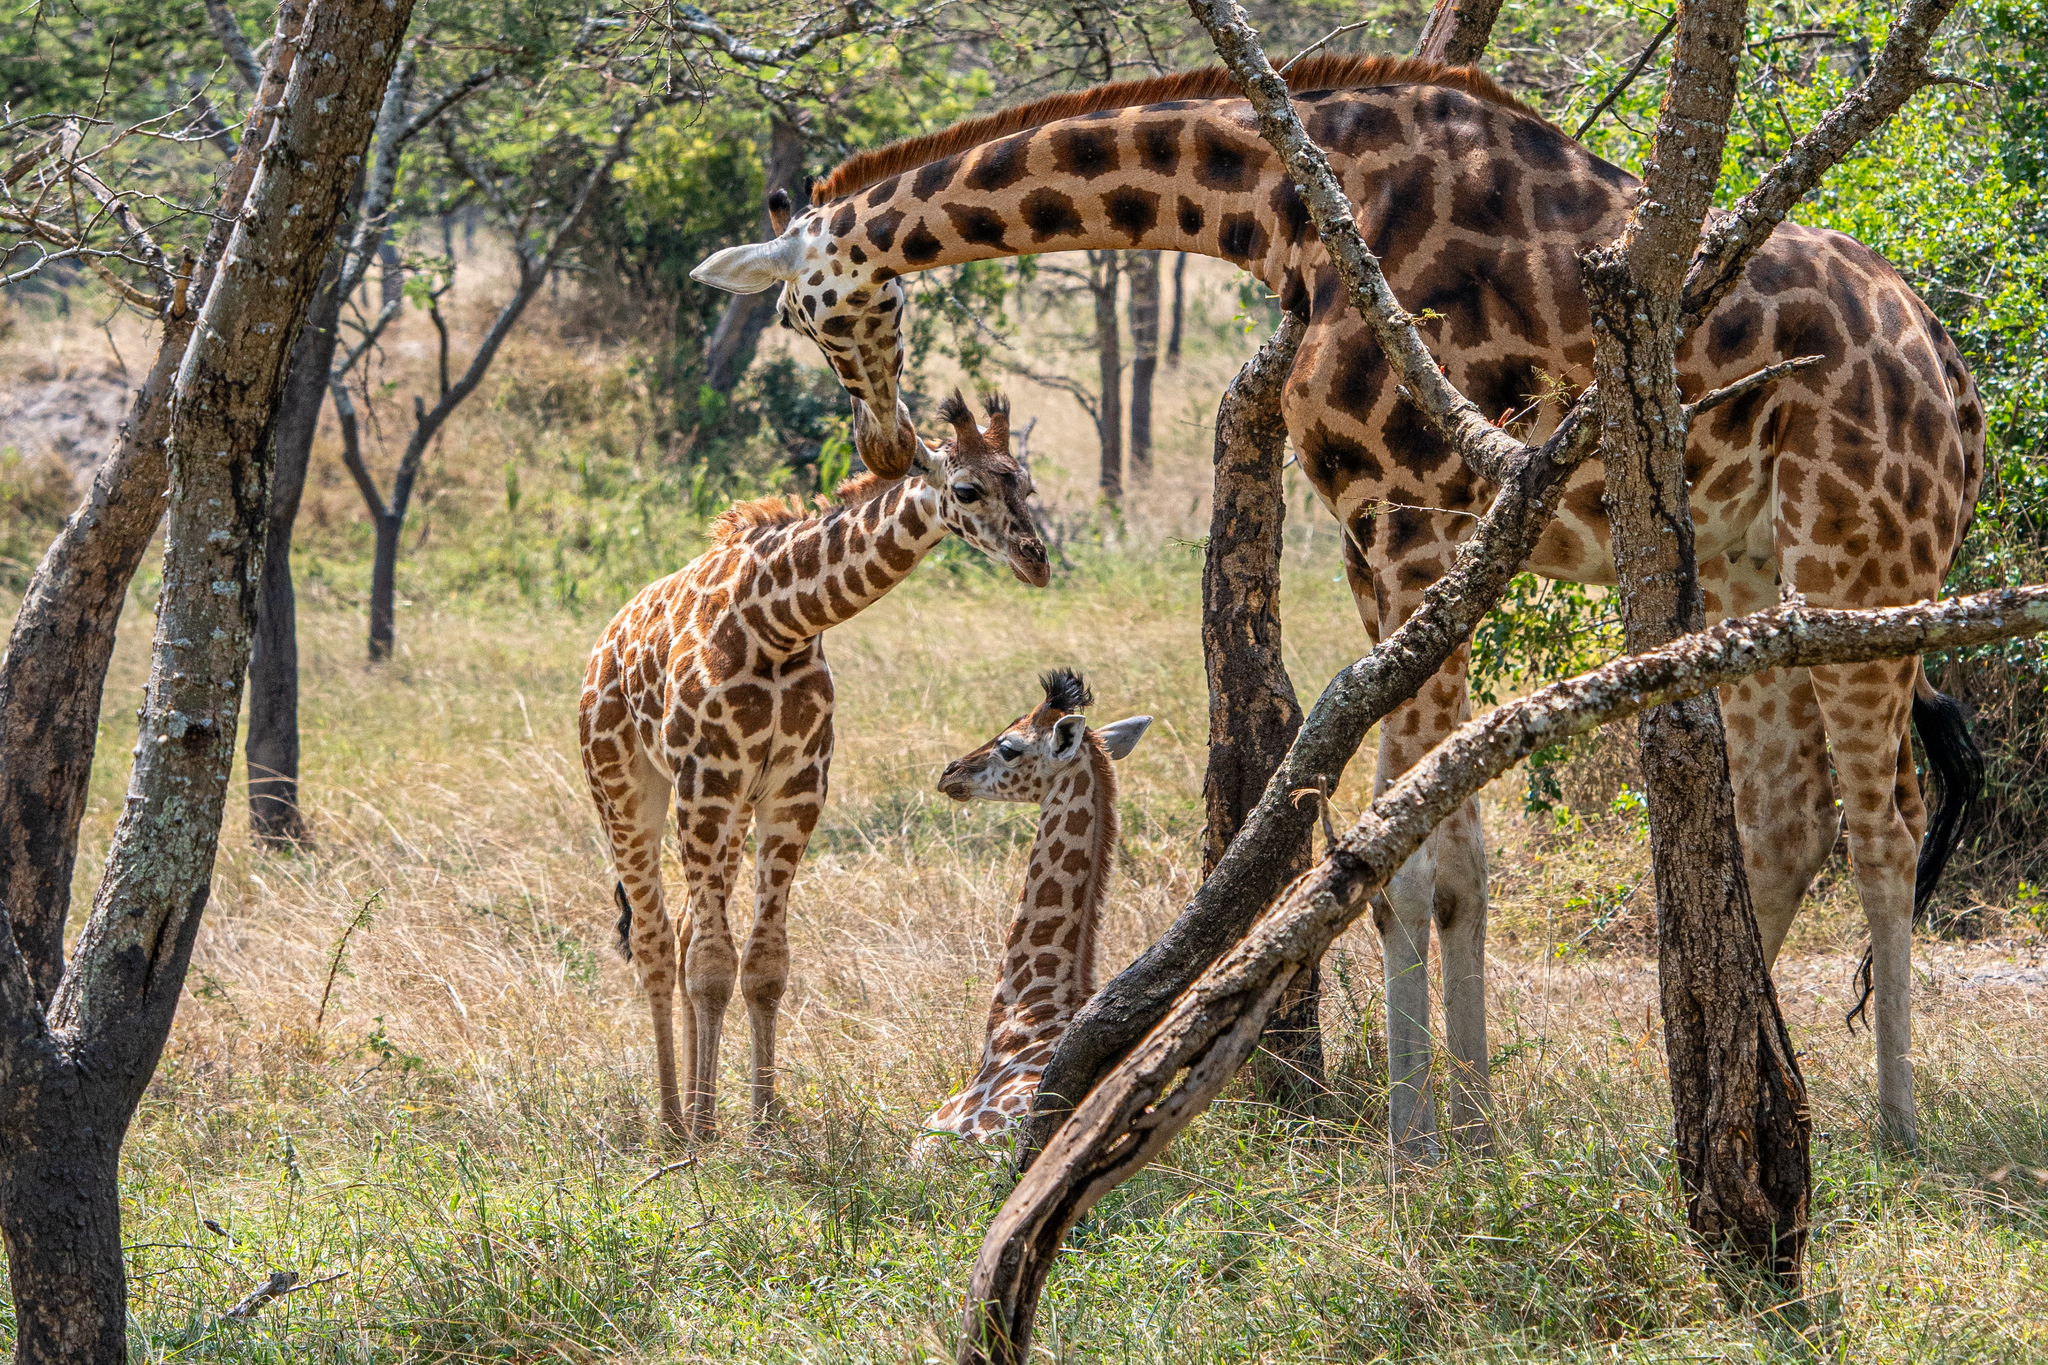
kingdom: Animalia
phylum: Chordata
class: Mammalia
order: Artiodactyla
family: Giraffidae
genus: Giraffa
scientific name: Giraffa camelopardalis
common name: Giraffe
